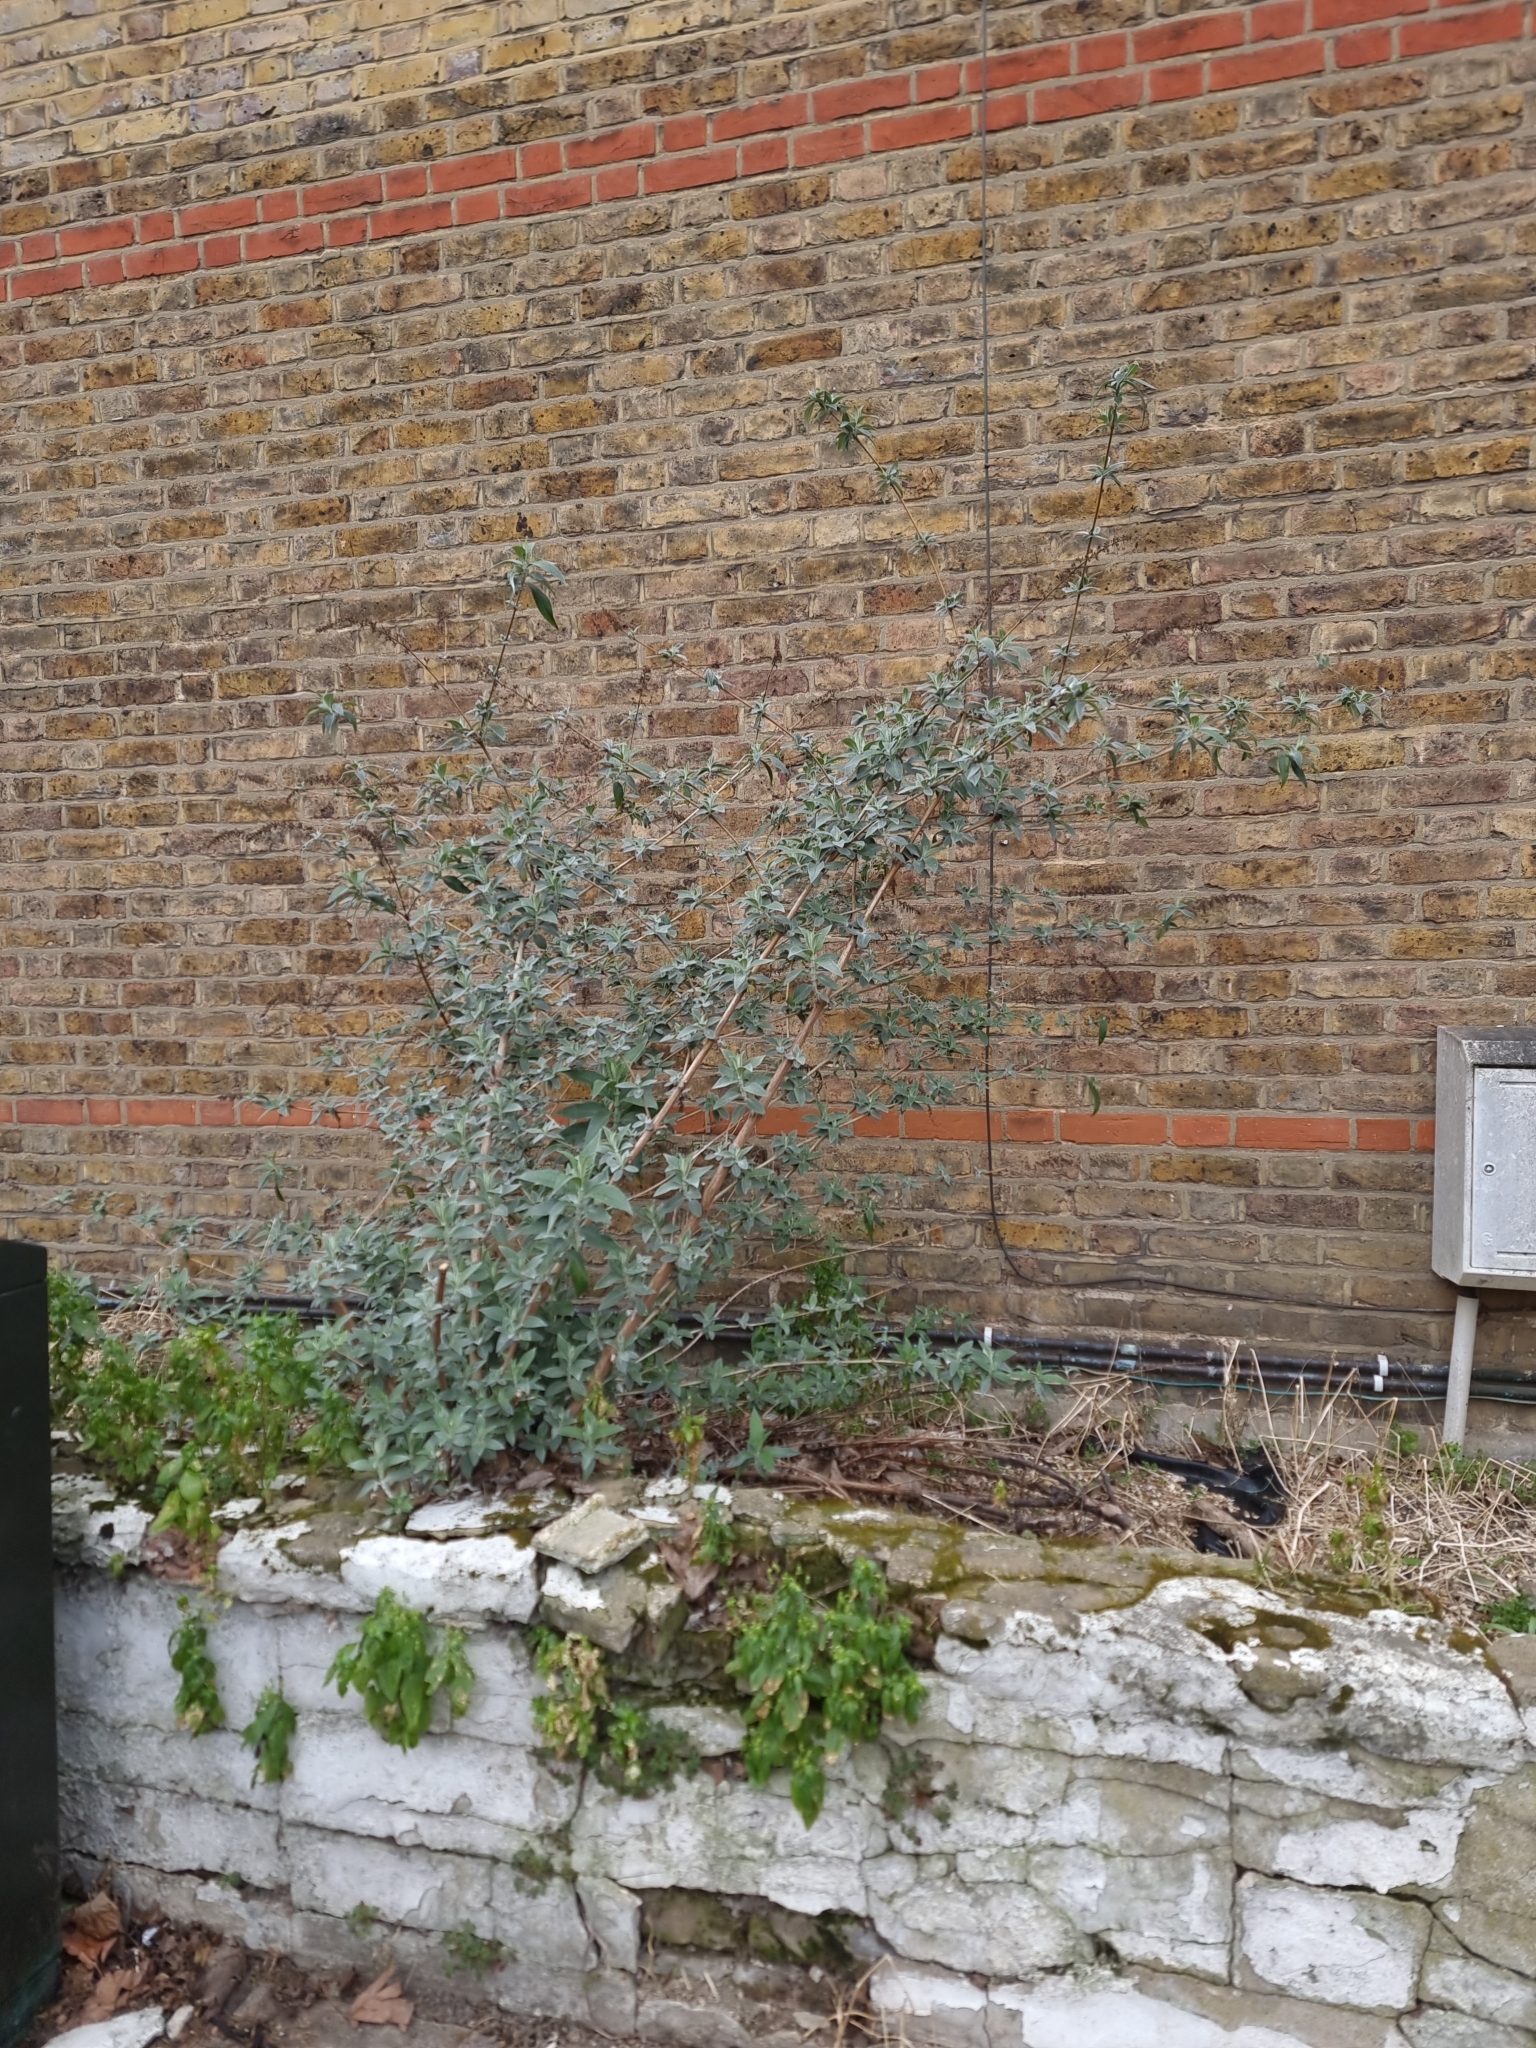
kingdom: Plantae
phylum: Tracheophyta
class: Magnoliopsida
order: Lamiales
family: Scrophulariaceae
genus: Buddleja
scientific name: Buddleja davidii
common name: Butterfly-bush
